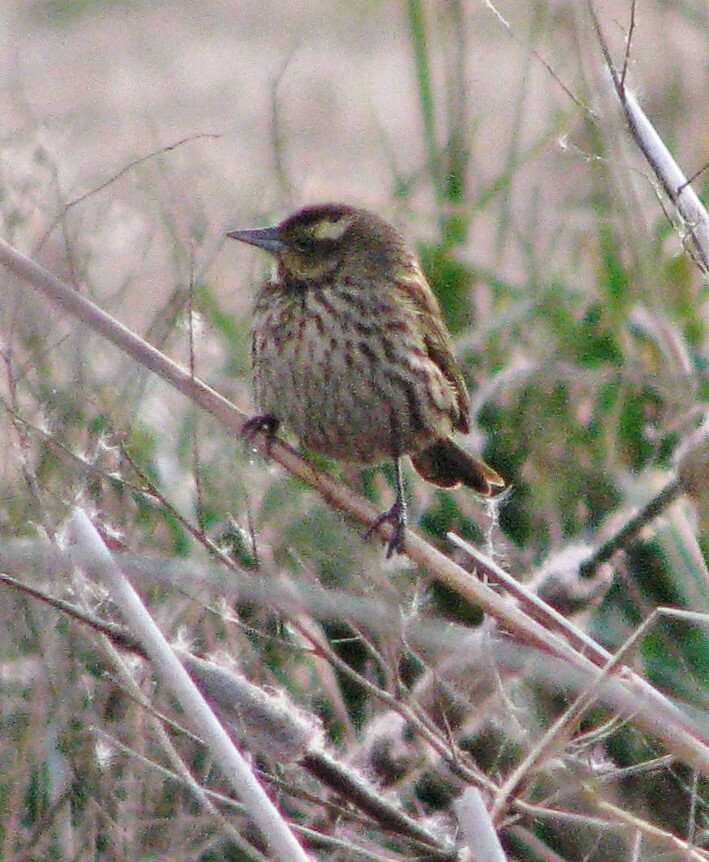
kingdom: Animalia
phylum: Chordata
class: Aves
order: Passeriformes
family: Icteridae
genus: Agelasticus
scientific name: Agelasticus thilius
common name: Yellow-winged blackbird
